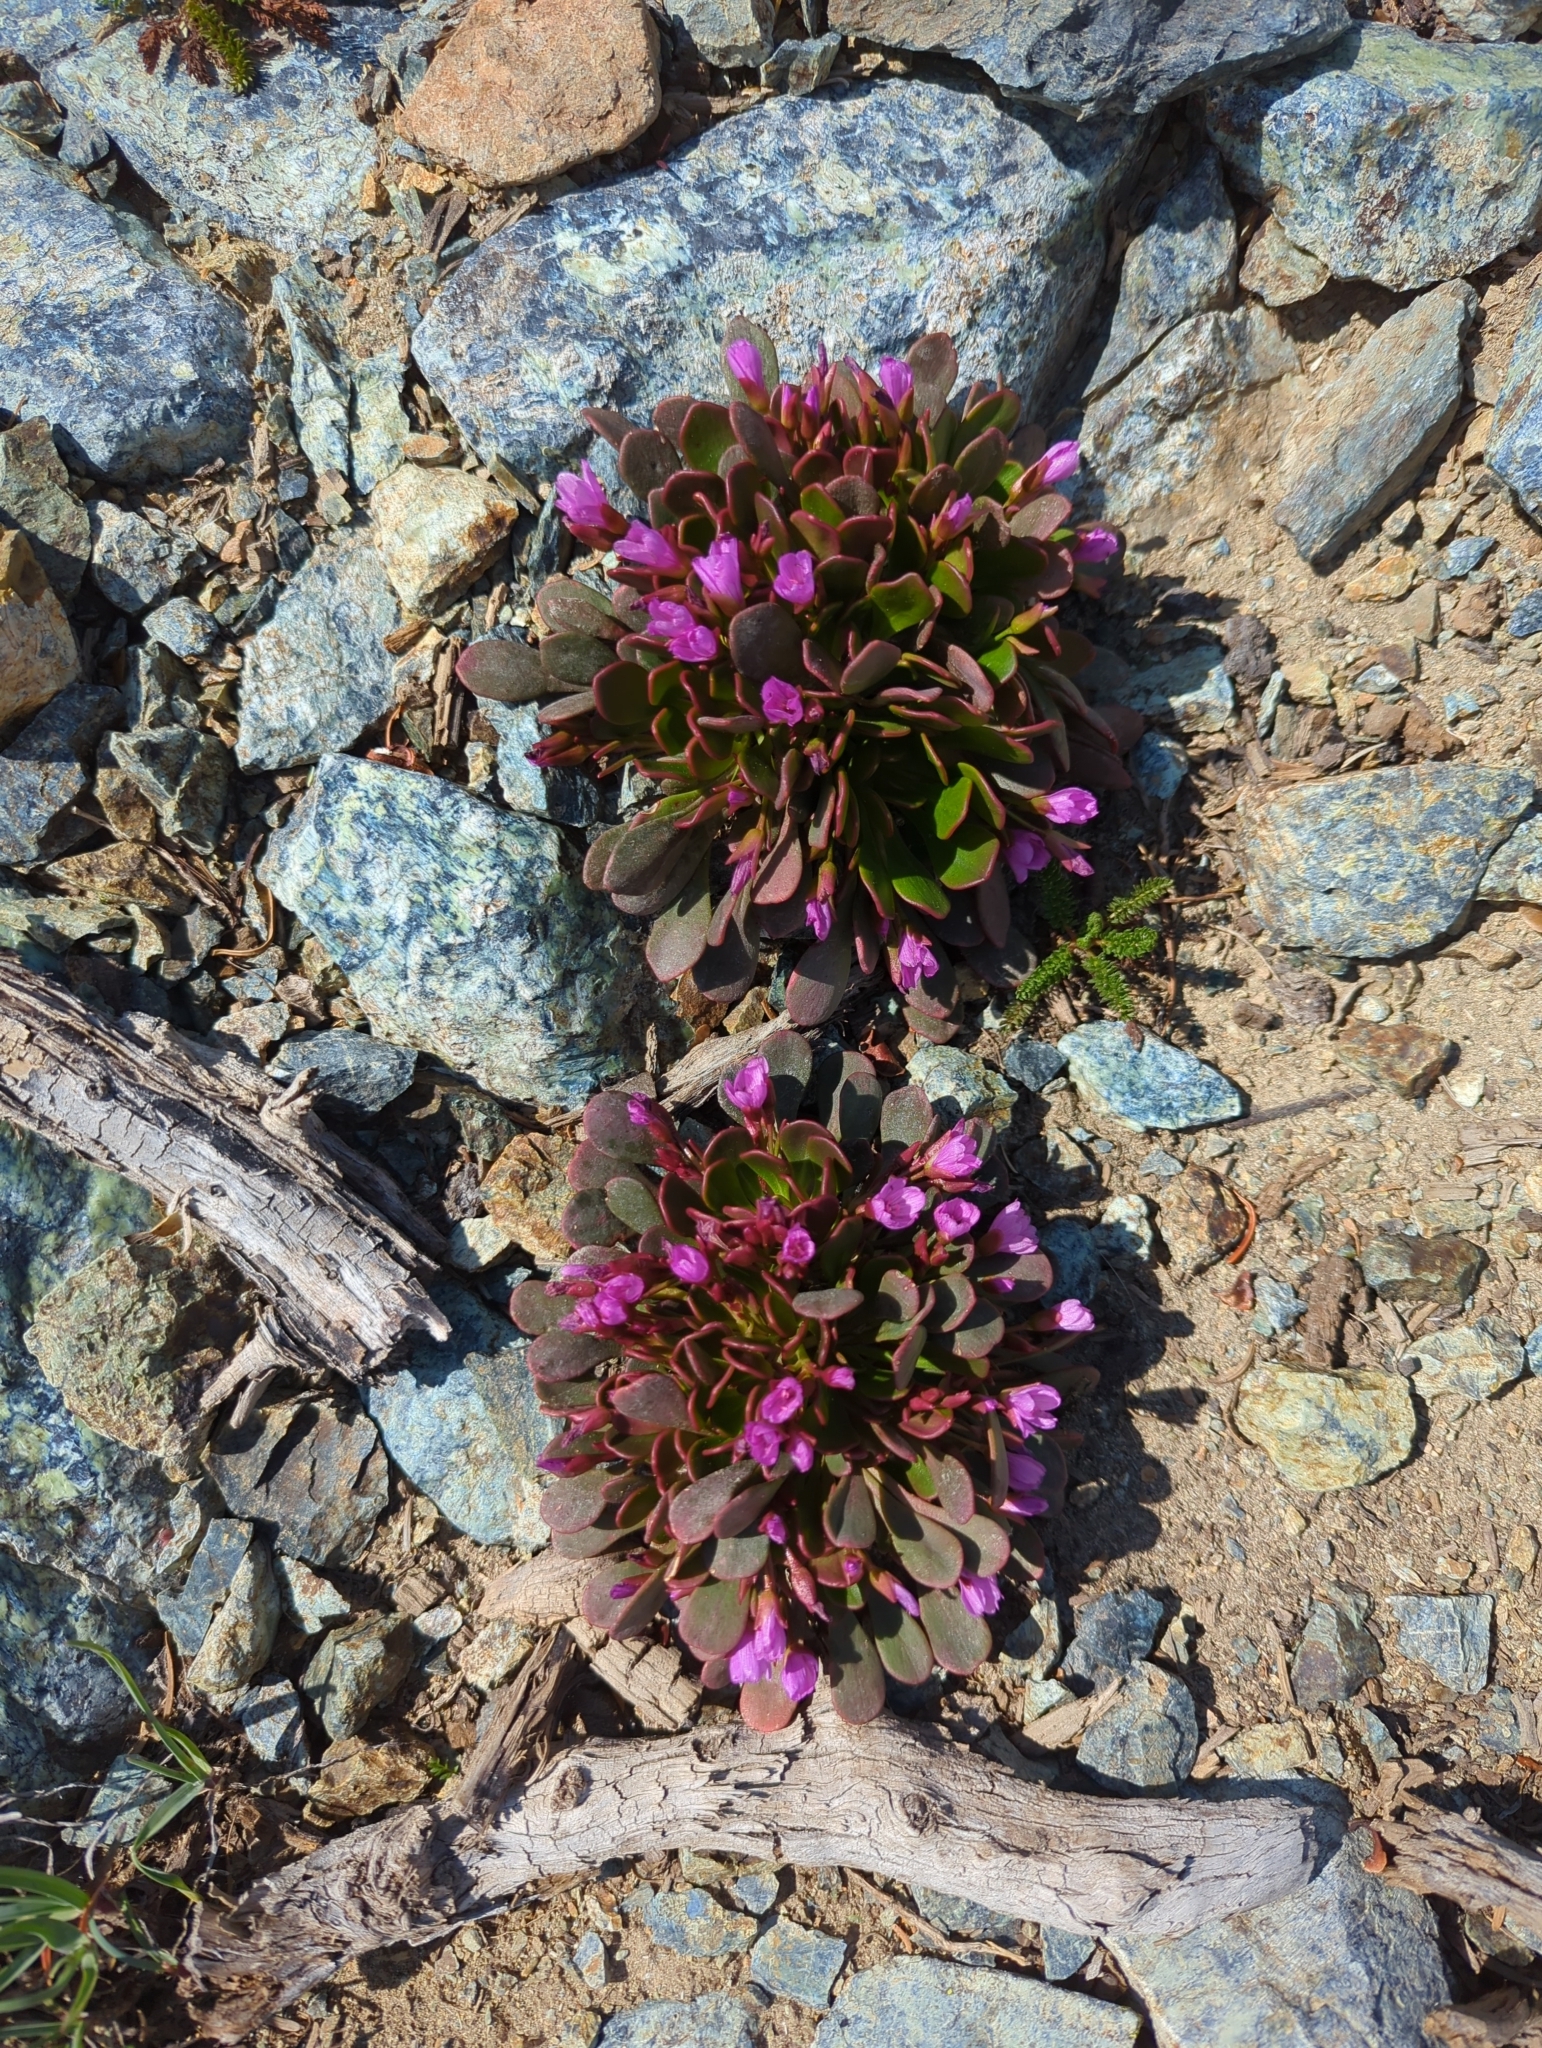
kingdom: Plantae
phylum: Tracheophyta
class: Magnoliopsida
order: Caryophyllales
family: Montiaceae
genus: Claytonia
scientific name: Claytonia megarhiza
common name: Alpine spring beauty
